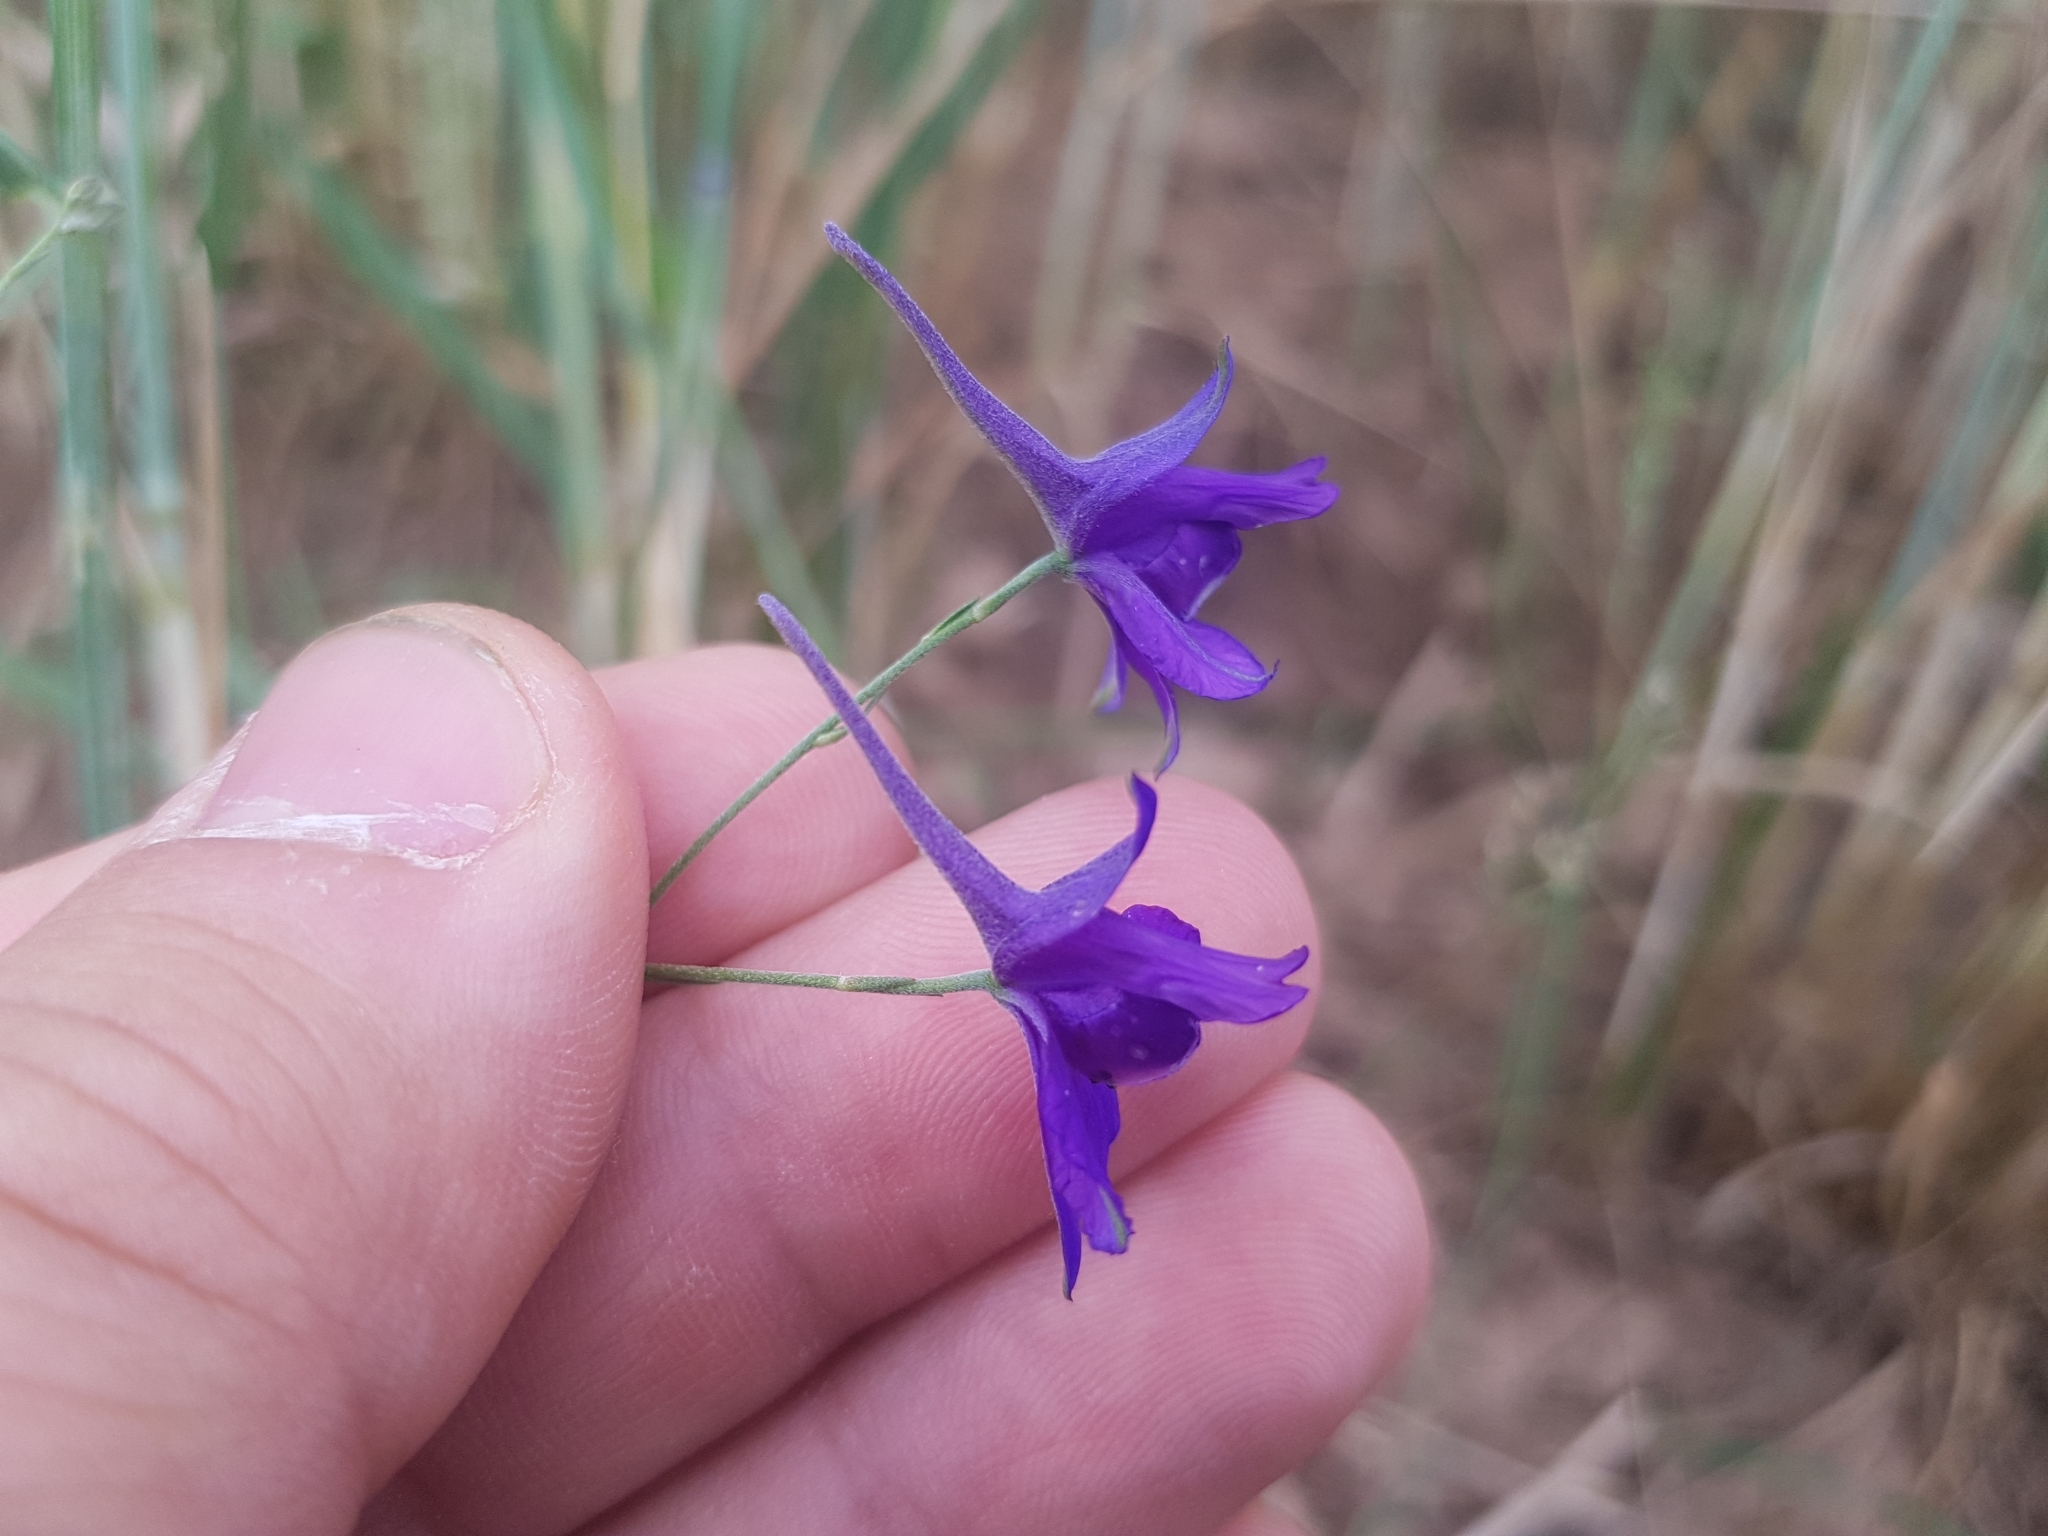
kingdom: Plantae
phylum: Tracheophyta
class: Magnoliopsida
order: Ranunculales
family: Ranunculaceae
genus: Delphinium
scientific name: Delphinium consolida
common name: Branching larkspur
